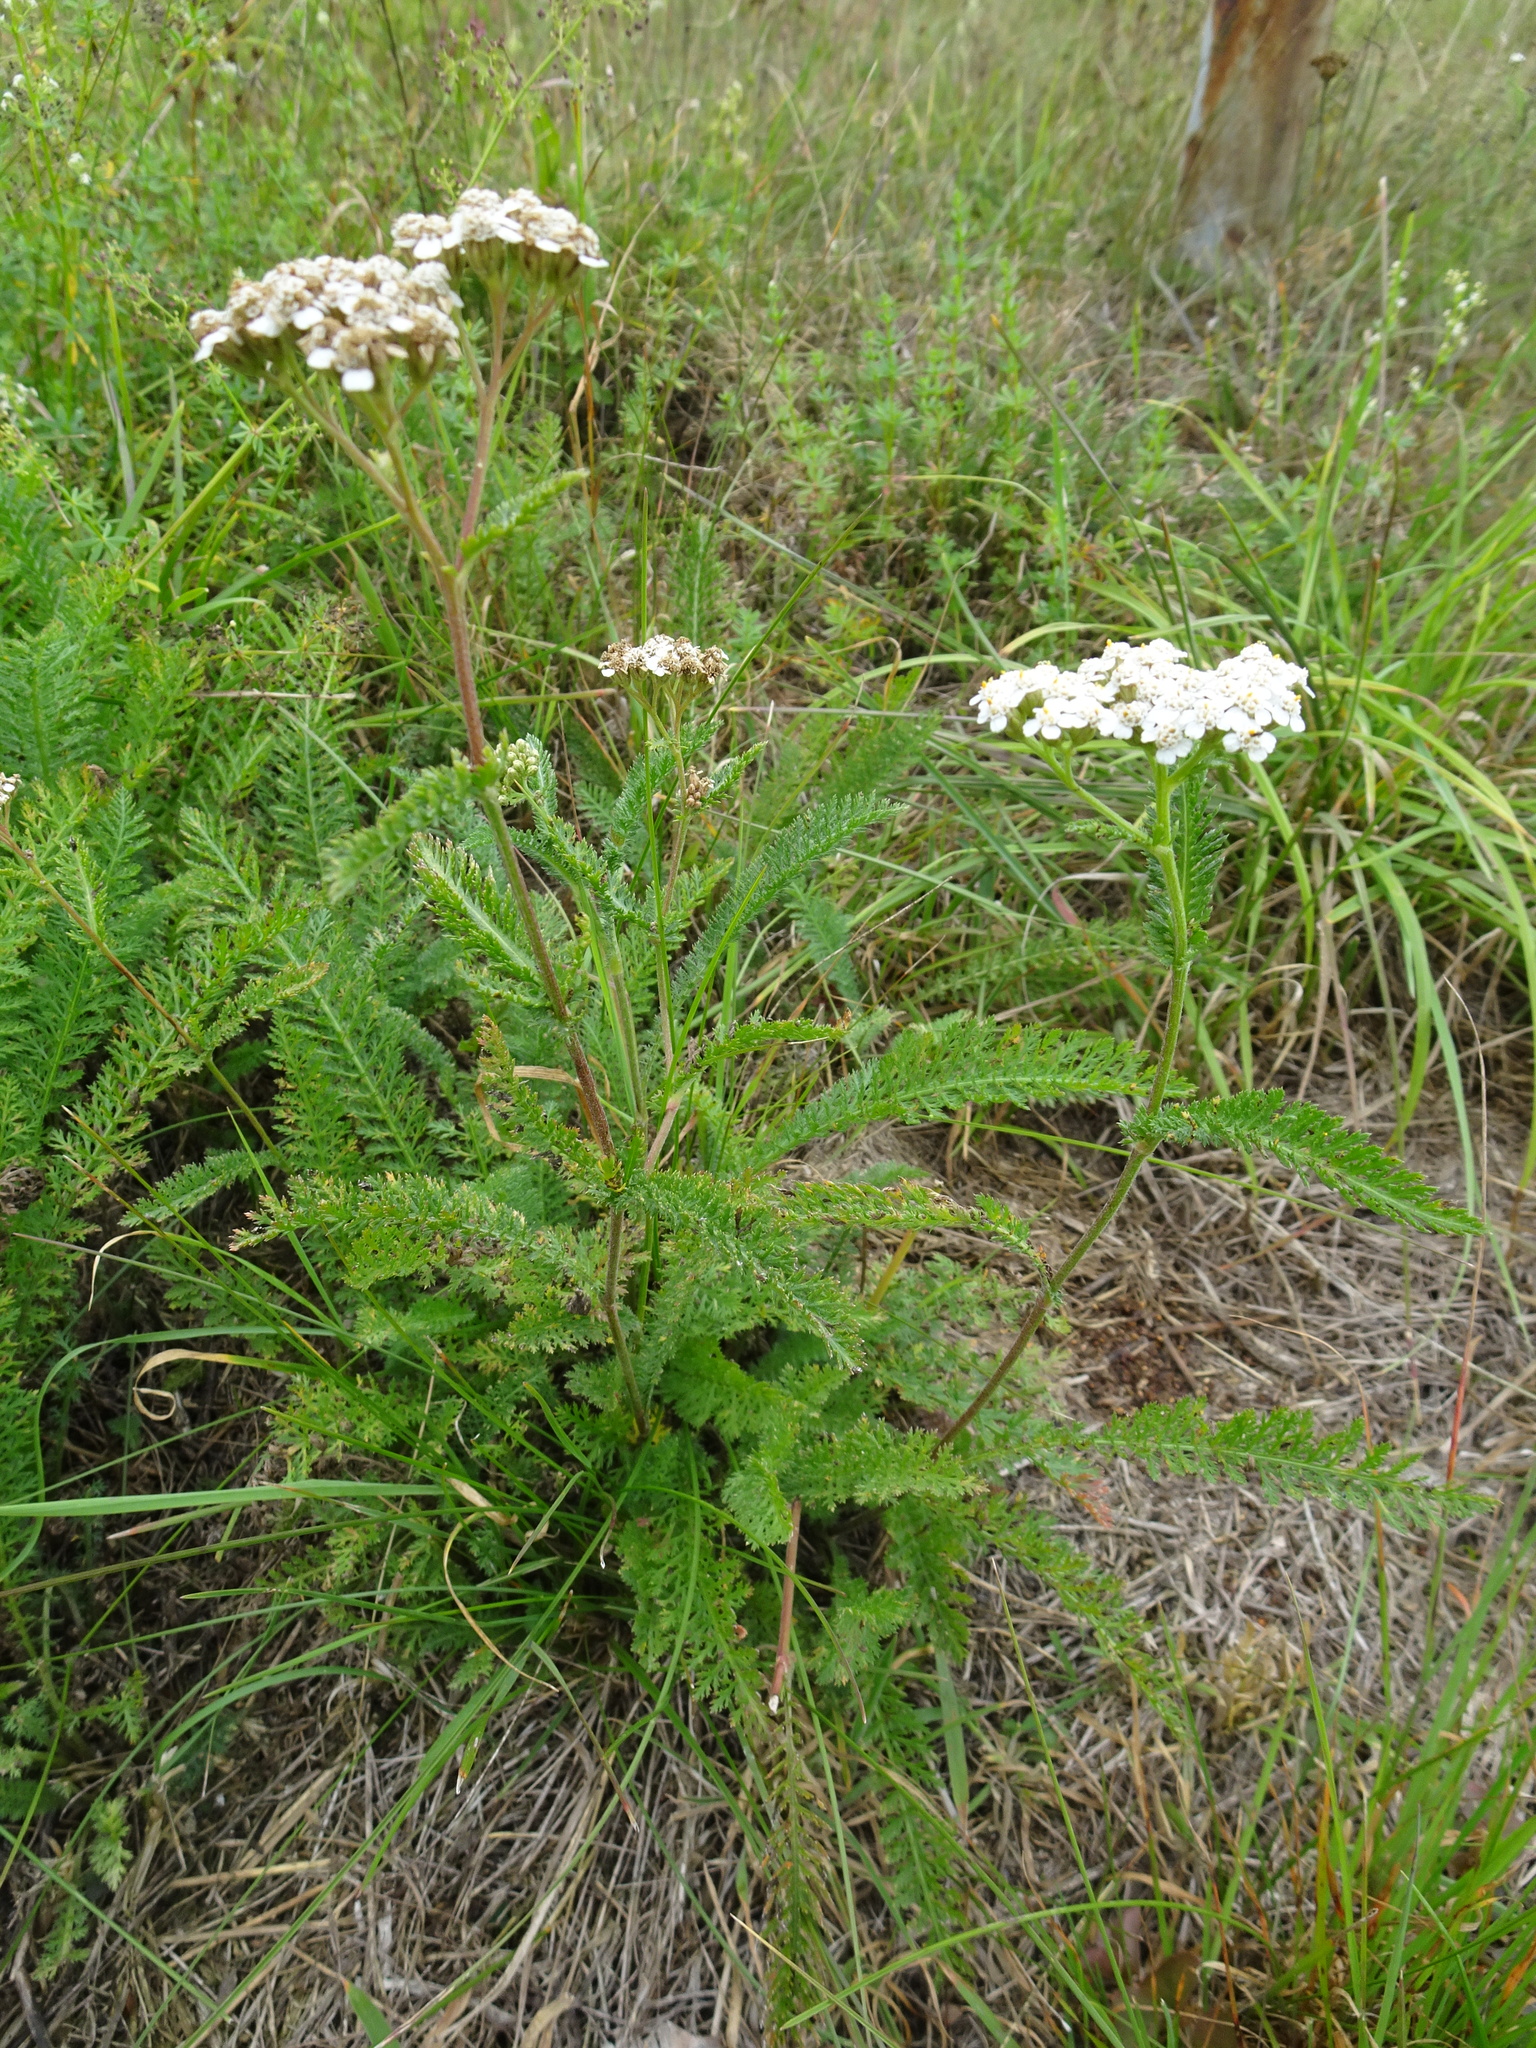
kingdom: Plantae
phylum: Tracheophyta
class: Magnoliopsida
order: Asterales
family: Asteraceae
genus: Achillea
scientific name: Achillea millefolium
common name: Yarrow
